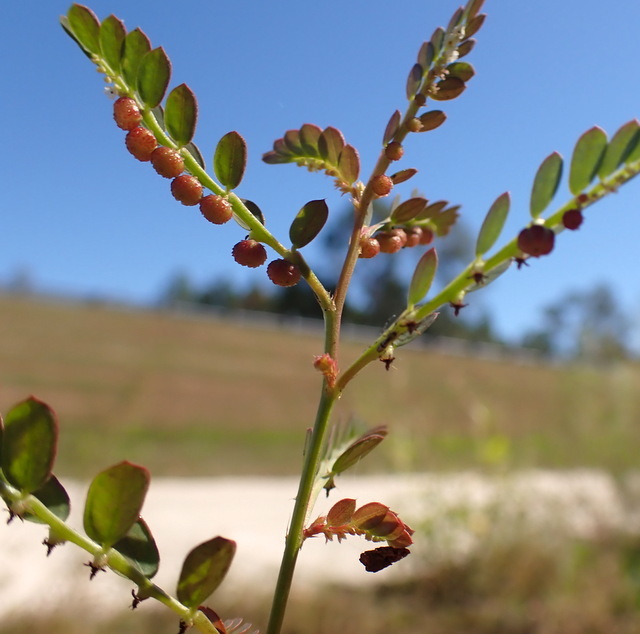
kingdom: Plantae
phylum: Tracheophyta
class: Magnoliopsida
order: Malpighiales
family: Phyllanthaceae
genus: Phyllanthus
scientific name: Phyllanthus urinaria
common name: Chamber bitter
